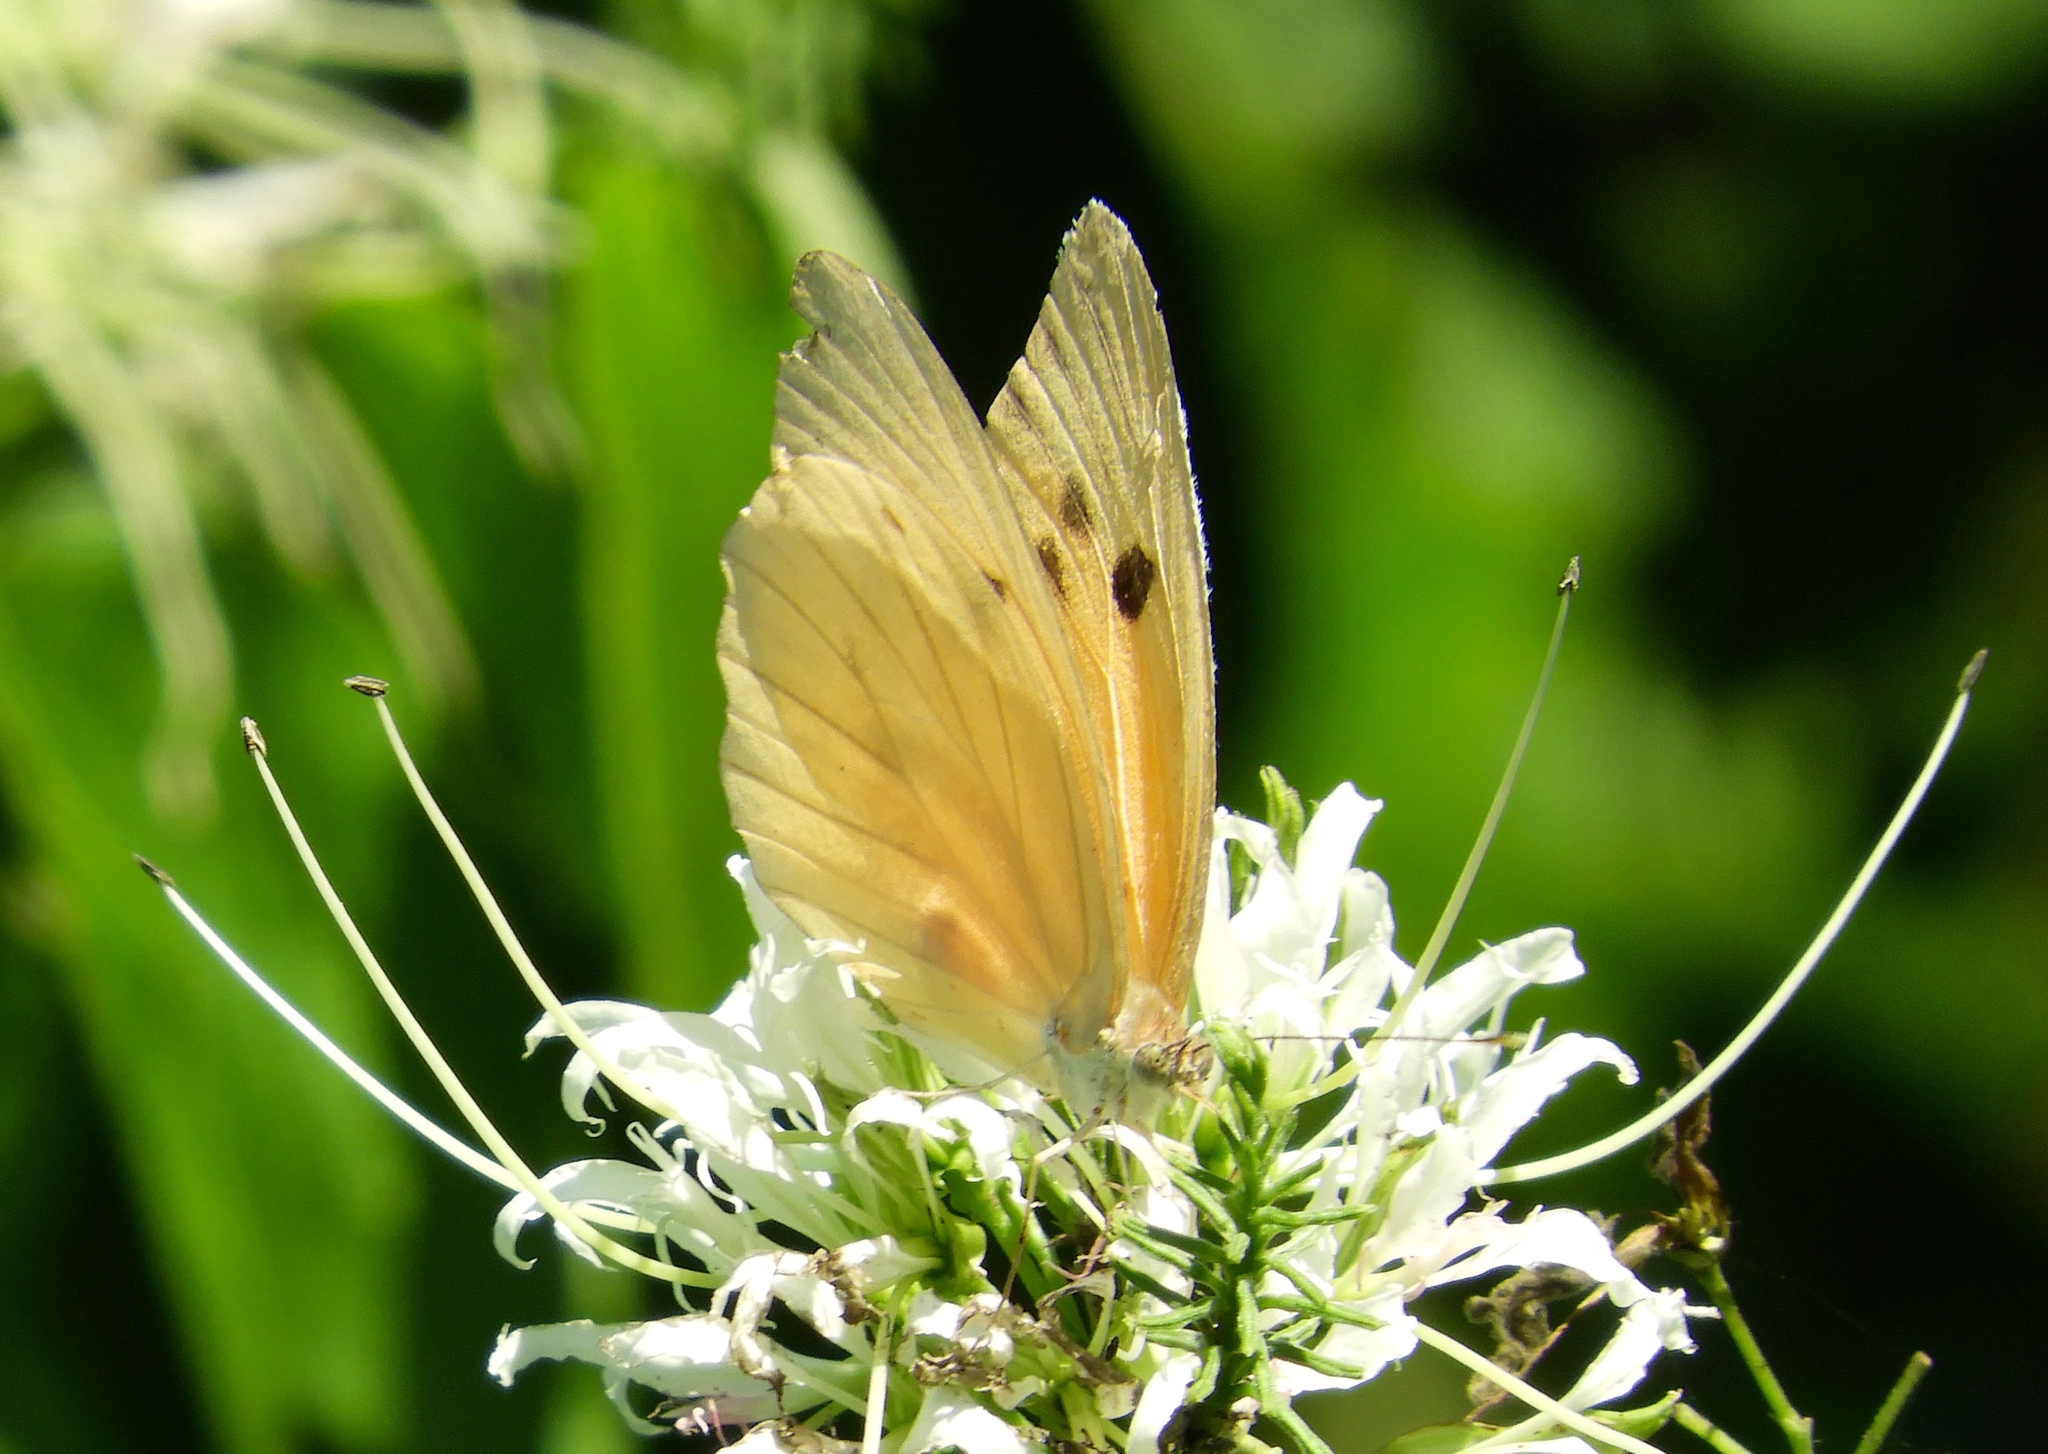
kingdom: Animalia
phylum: Arthropoda
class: Insecta
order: Lepidoptera
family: Pieridae
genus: Ganyra
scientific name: Ganyra josephina
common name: Giant white
